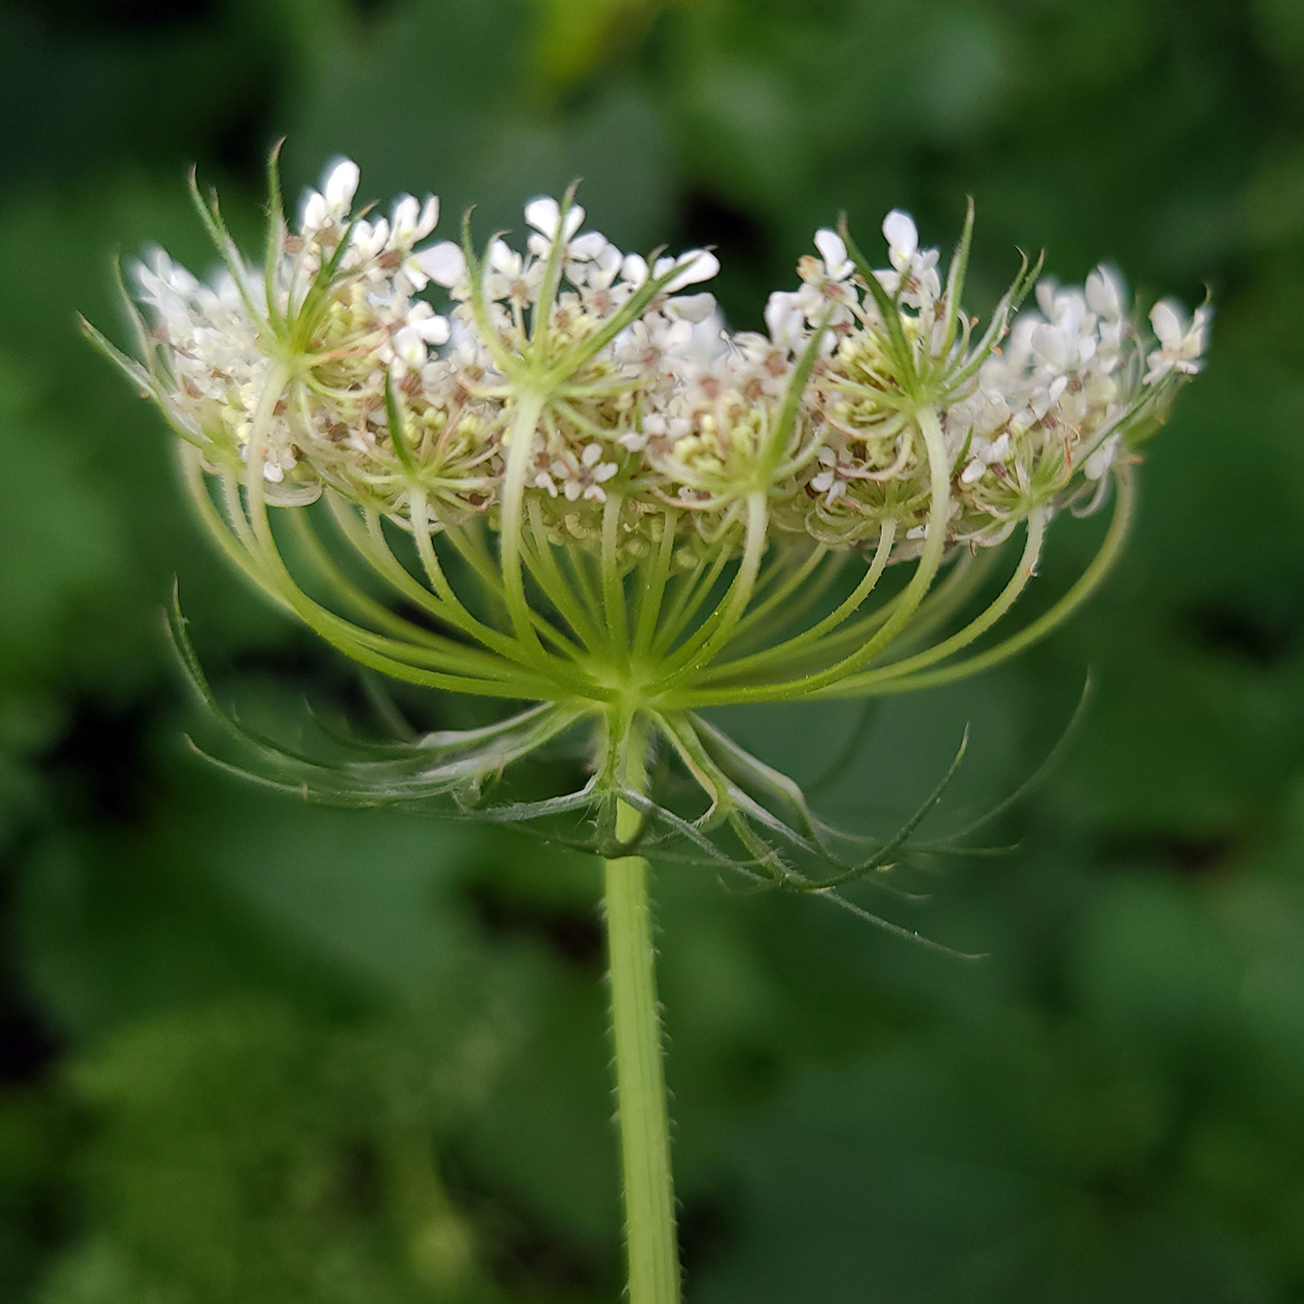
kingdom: Plantae
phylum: Tracheophyta
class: Magnoliopsida
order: Apiales
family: Apiaceae
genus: Daucus
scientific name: Daucus carota
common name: Wild carrot
